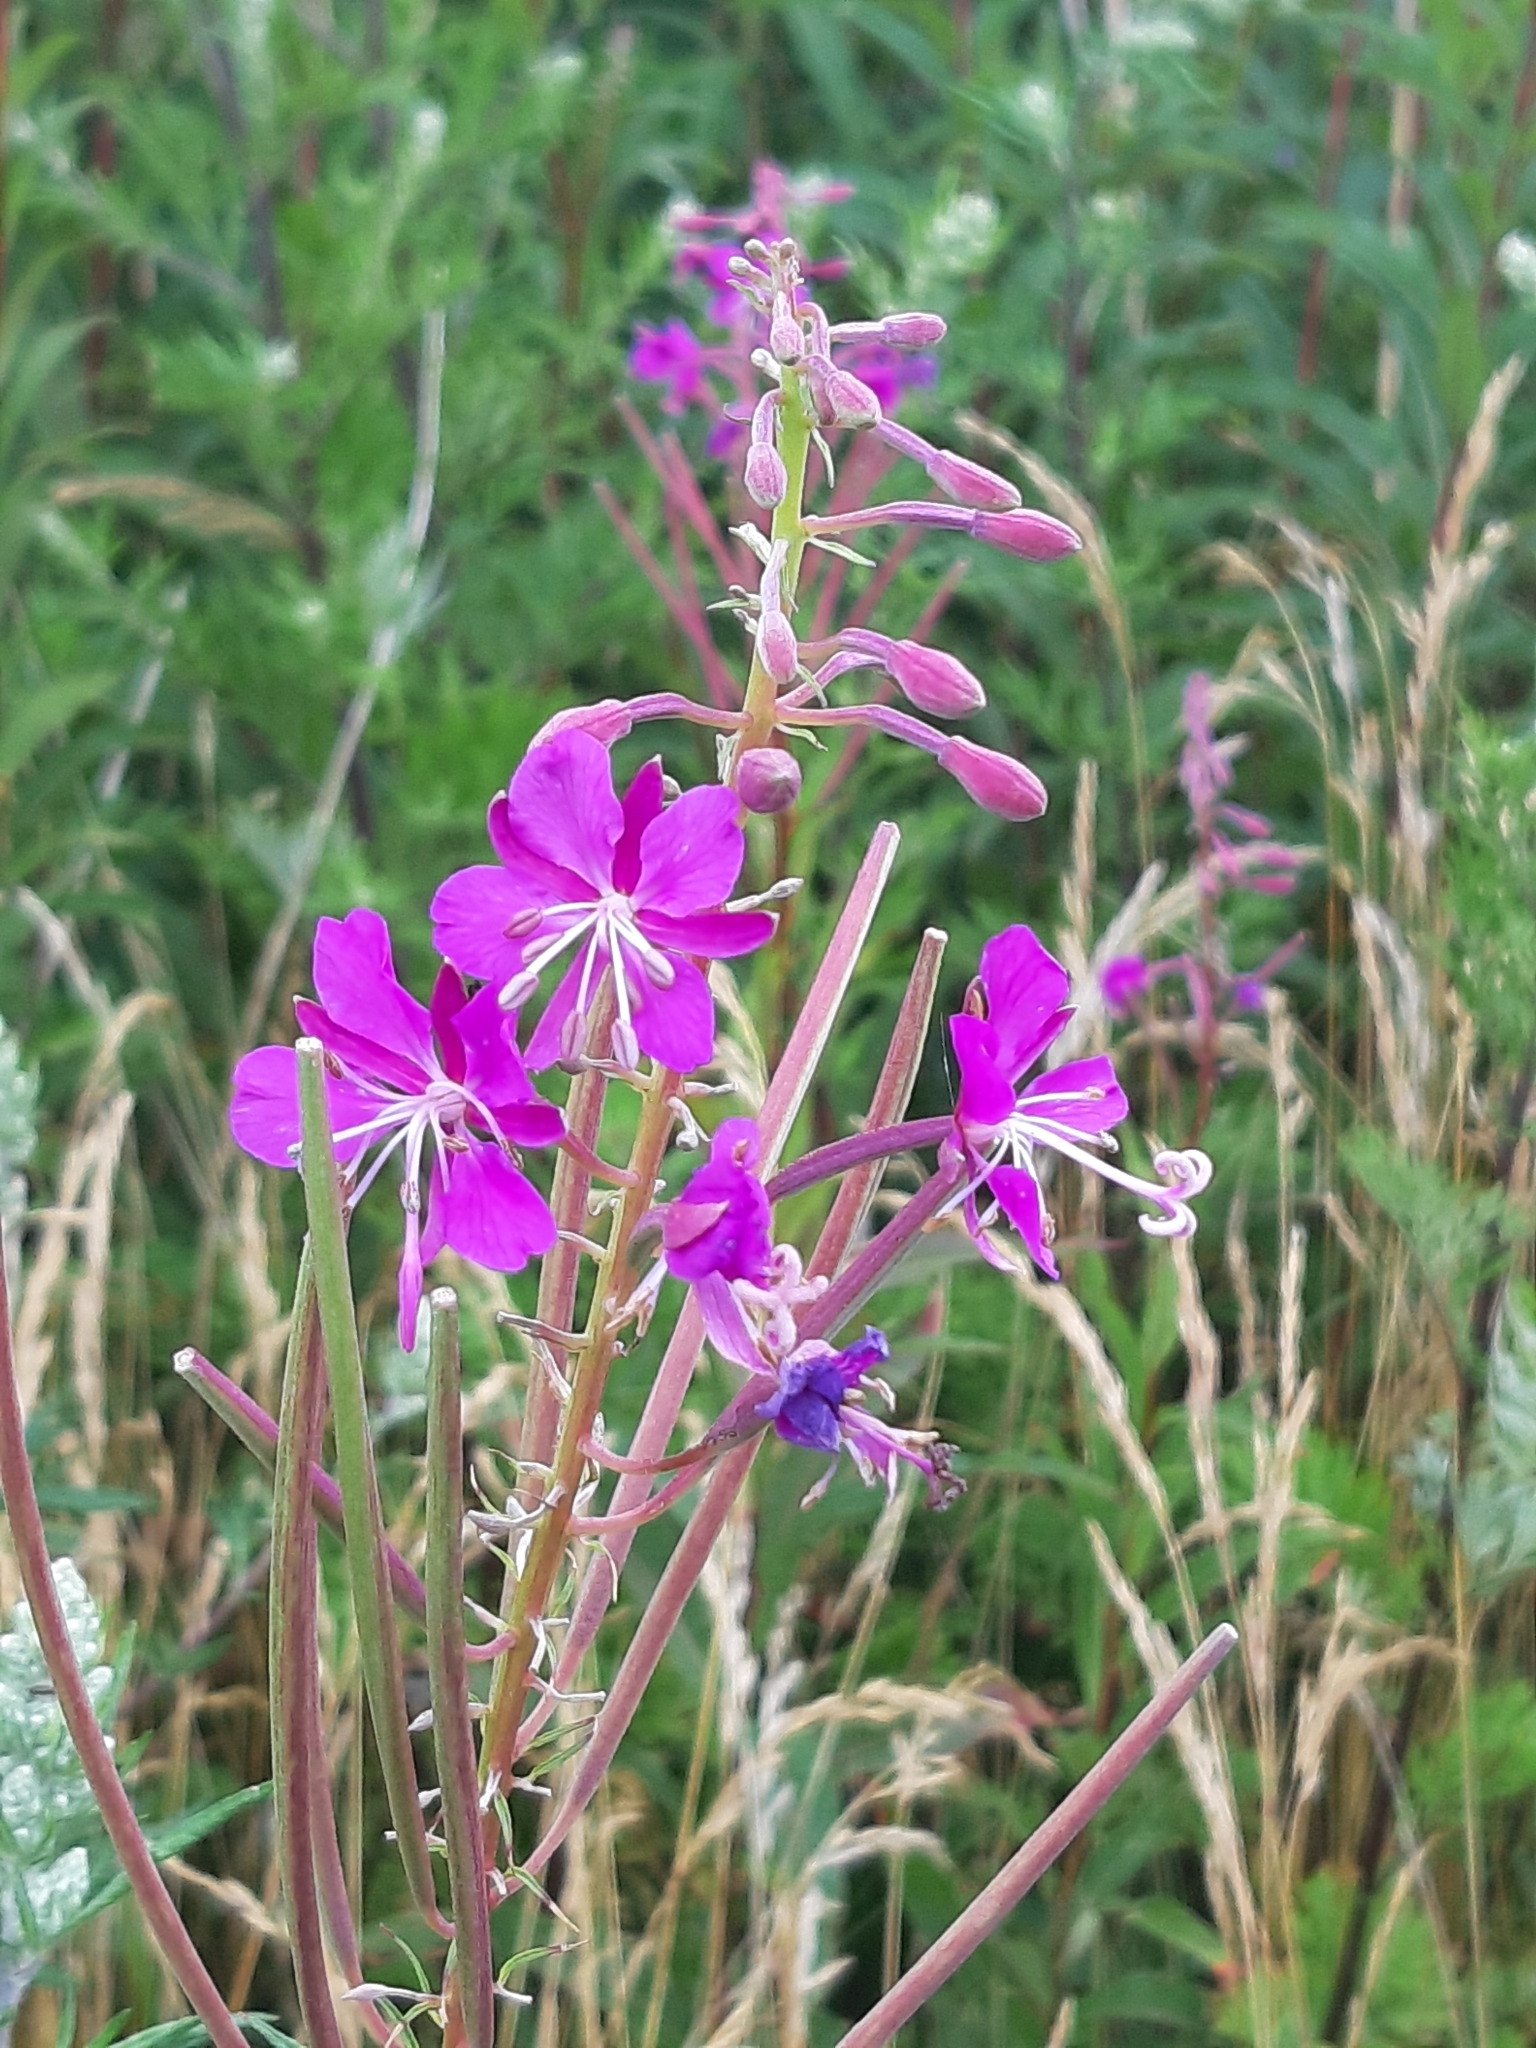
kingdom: Plantae
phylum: Tracheophyta
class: Magnoliopsida
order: Myrtales
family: Onagraceae
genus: Chamaenerion
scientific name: Chamaenerion angustifolium
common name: Fireweed
